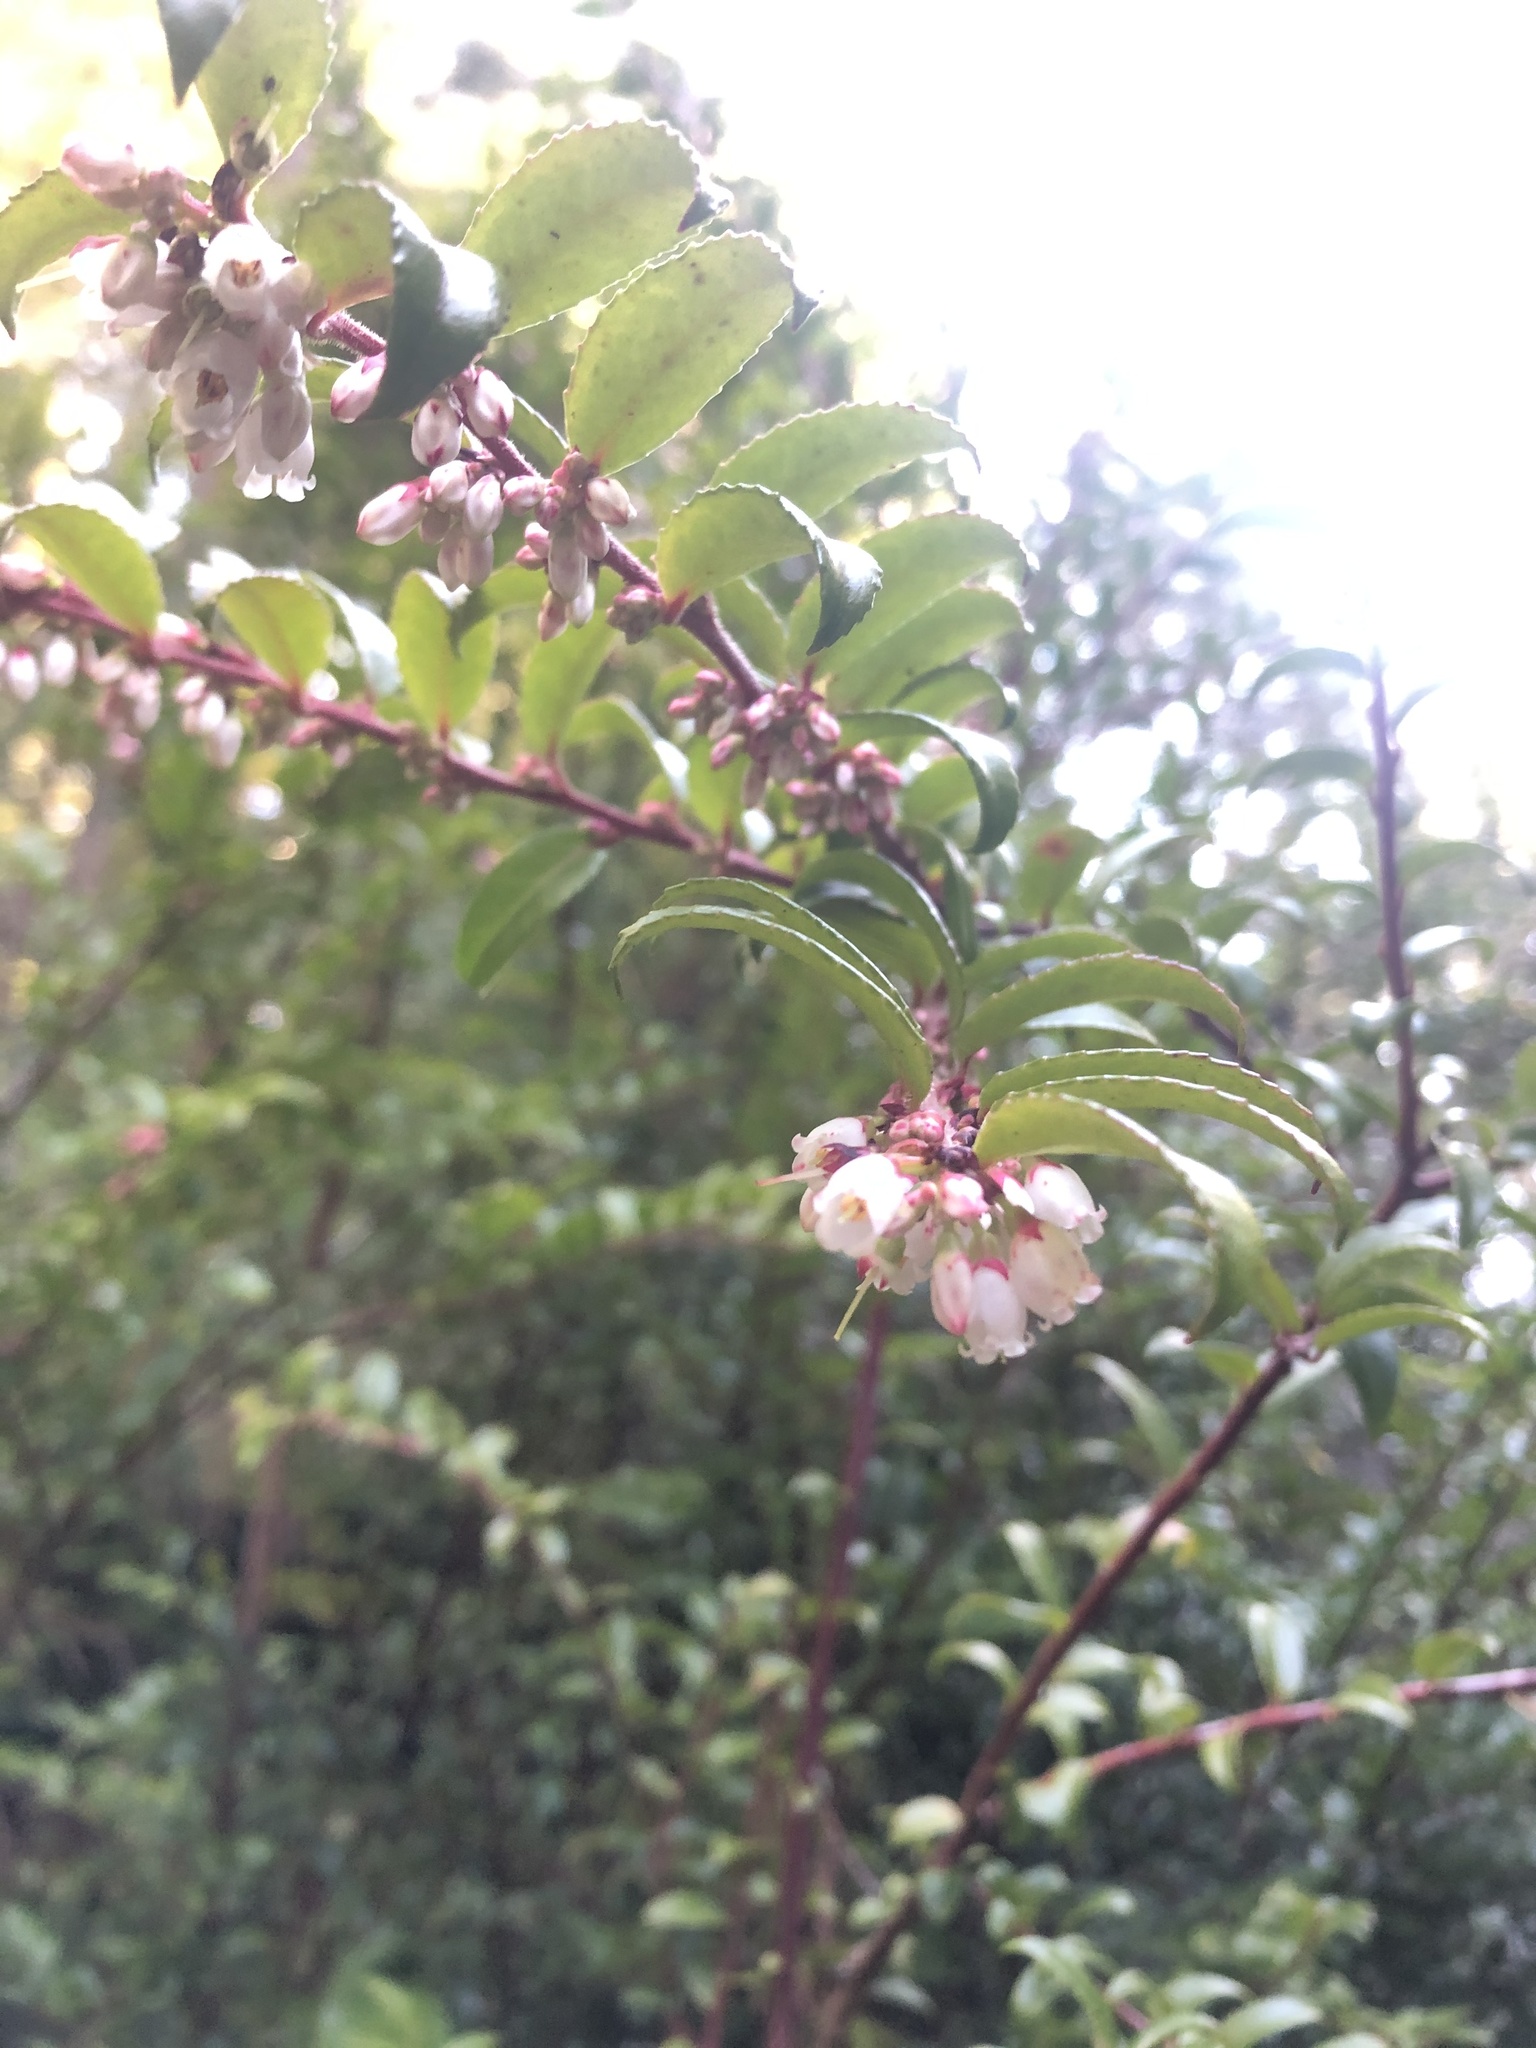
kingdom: Plantae
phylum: Tracheophyta
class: Magnoliopsida
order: Ericales
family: Ericaceae
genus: Vaccinium
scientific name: Vaccinium ovatum
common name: California-huckleberry
